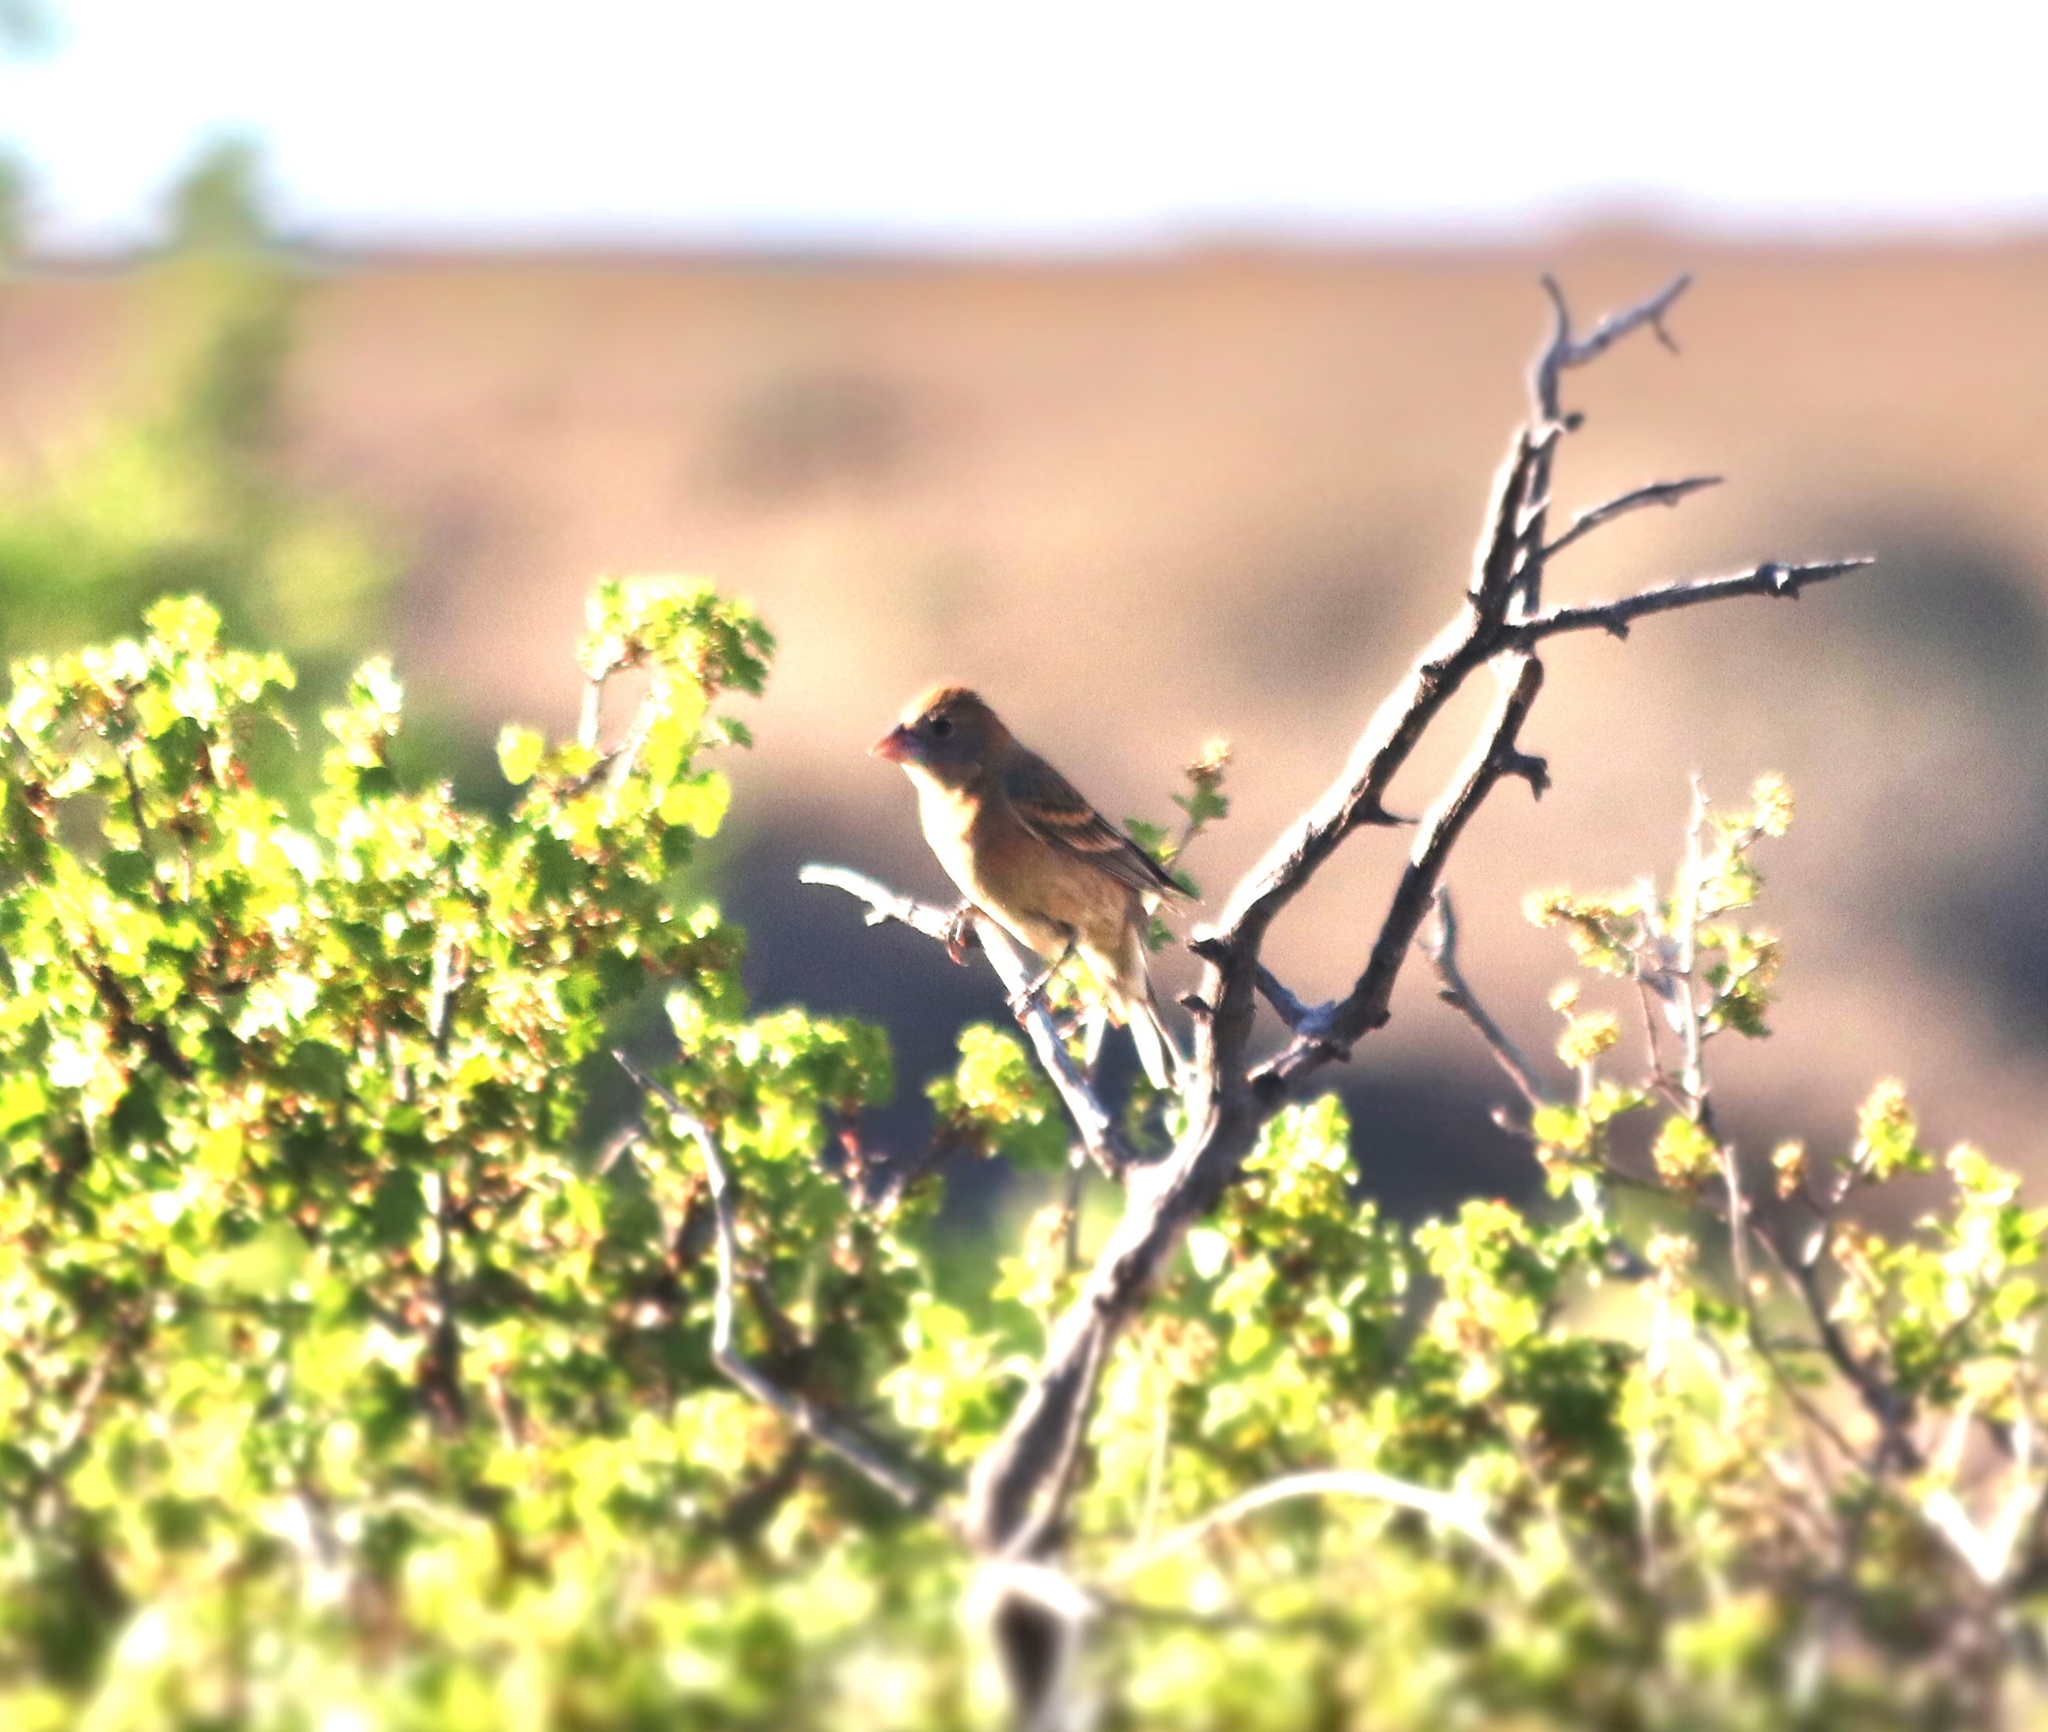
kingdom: Animalia
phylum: Chordata
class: Aves
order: Passeriformes
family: Cardinalidae
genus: Passerina
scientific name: Passerina amoena
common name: Lazuli bunting
